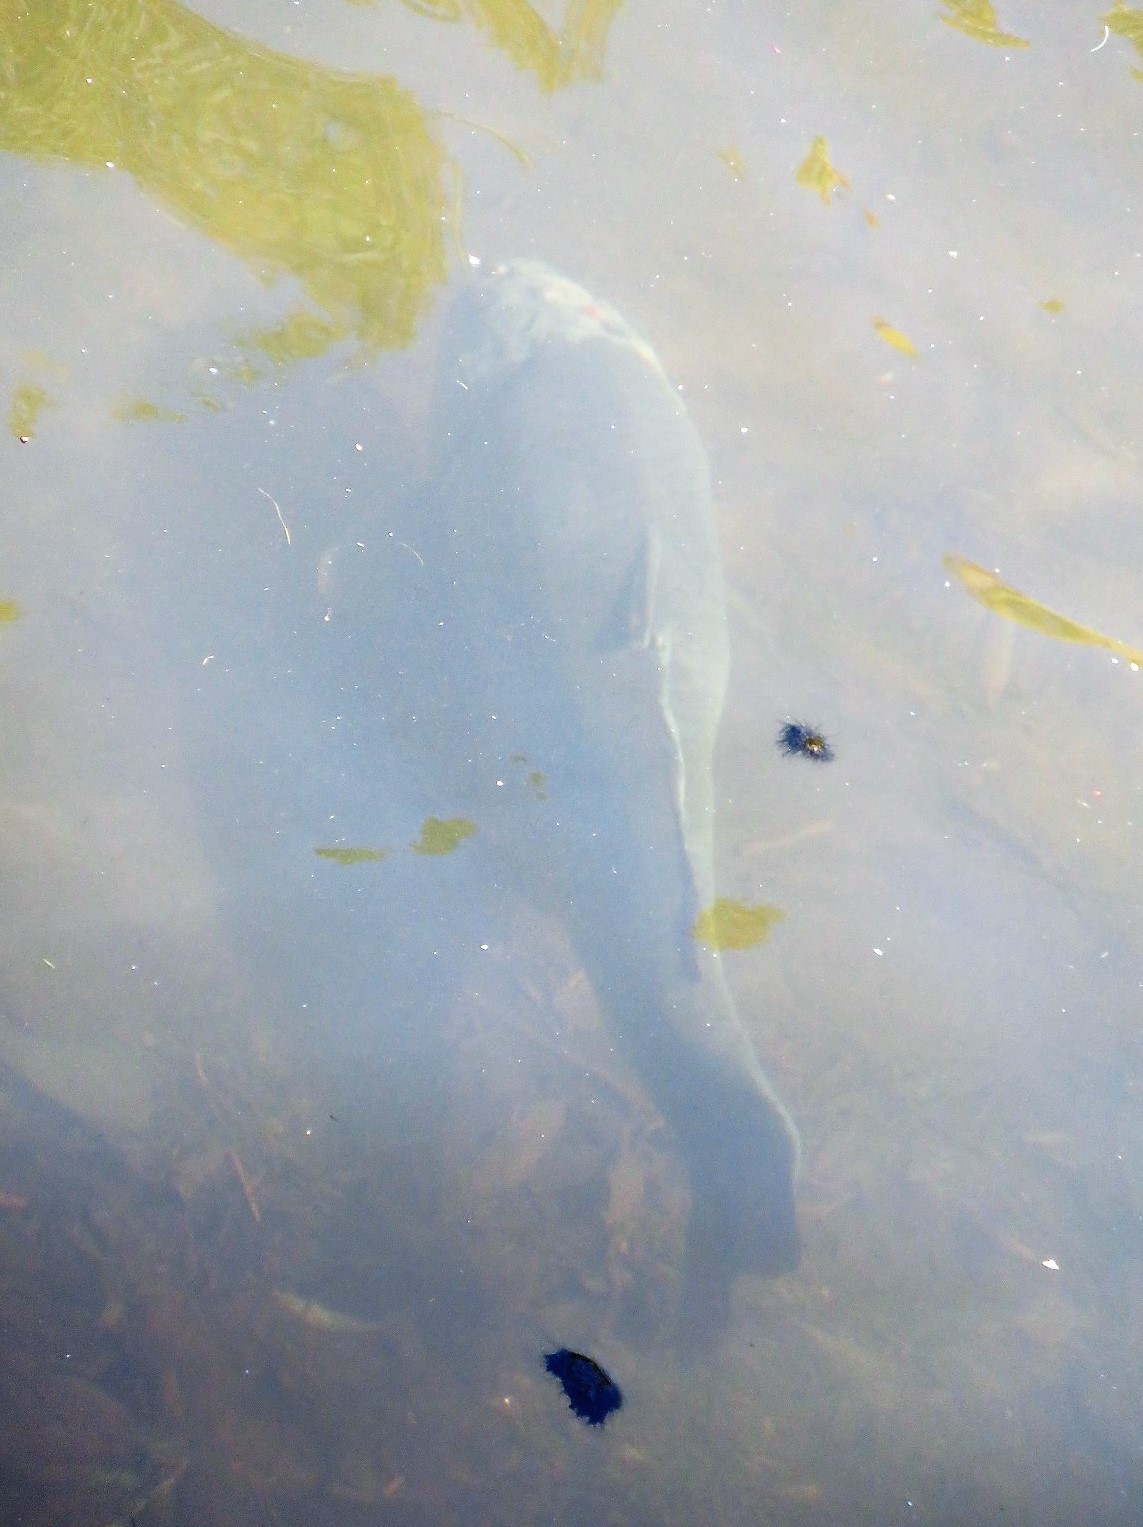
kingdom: Animalia
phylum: Chordata
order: Cypriniformes
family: Cyprinidae
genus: Cyprinus
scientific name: Cyprinus carpio
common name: Common carp
